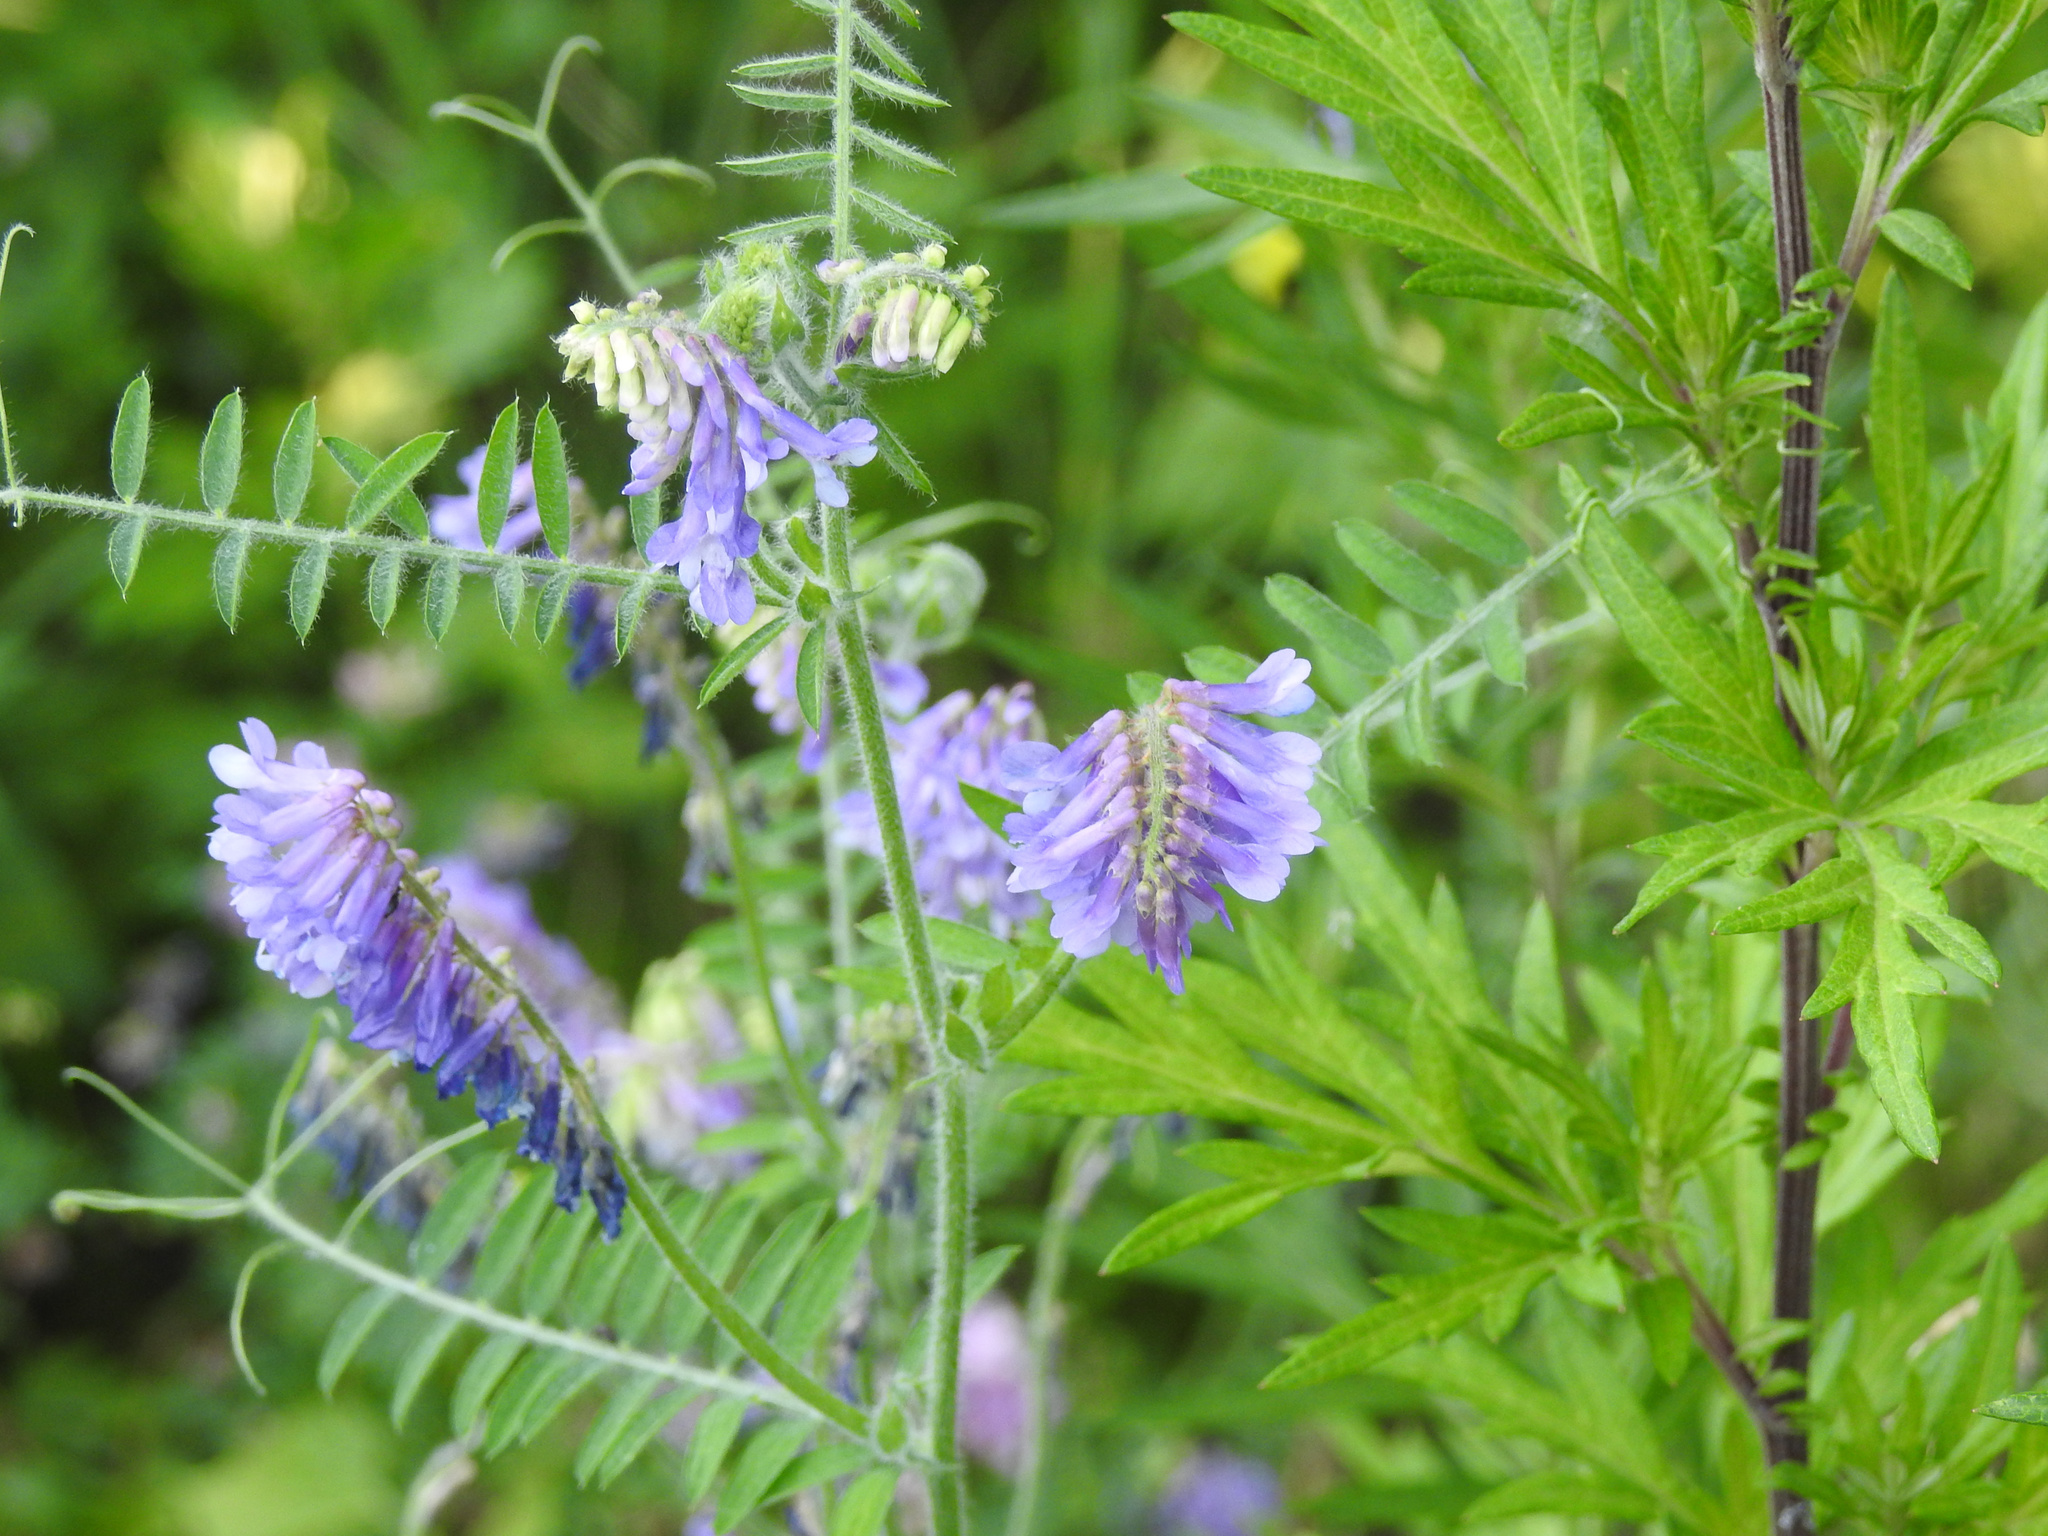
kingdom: Plantae
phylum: Tracheophyta
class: Magnoliopsida
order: Fabales
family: Fabaceae
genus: Vicia
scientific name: Vicia villosa
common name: Fodder vetch
